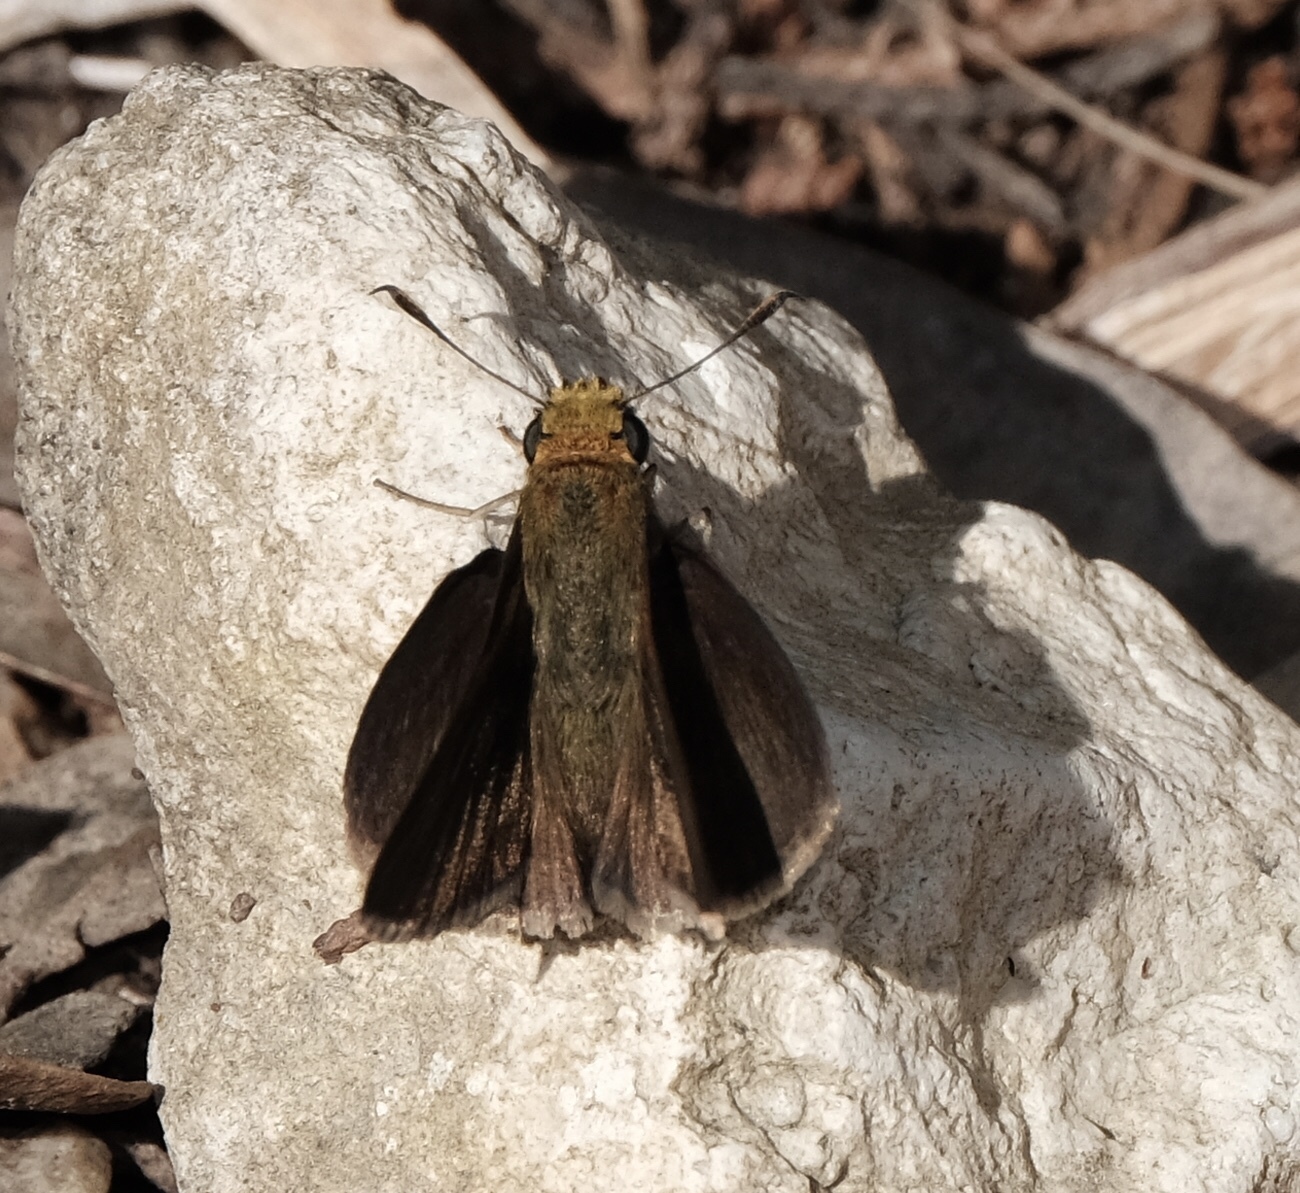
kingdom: Animalia
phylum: Arthropoda
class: Insecta
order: Lepidoptera
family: Hesperiidae
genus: Euphyes
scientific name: Euphyes vestris
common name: Dun skipper
